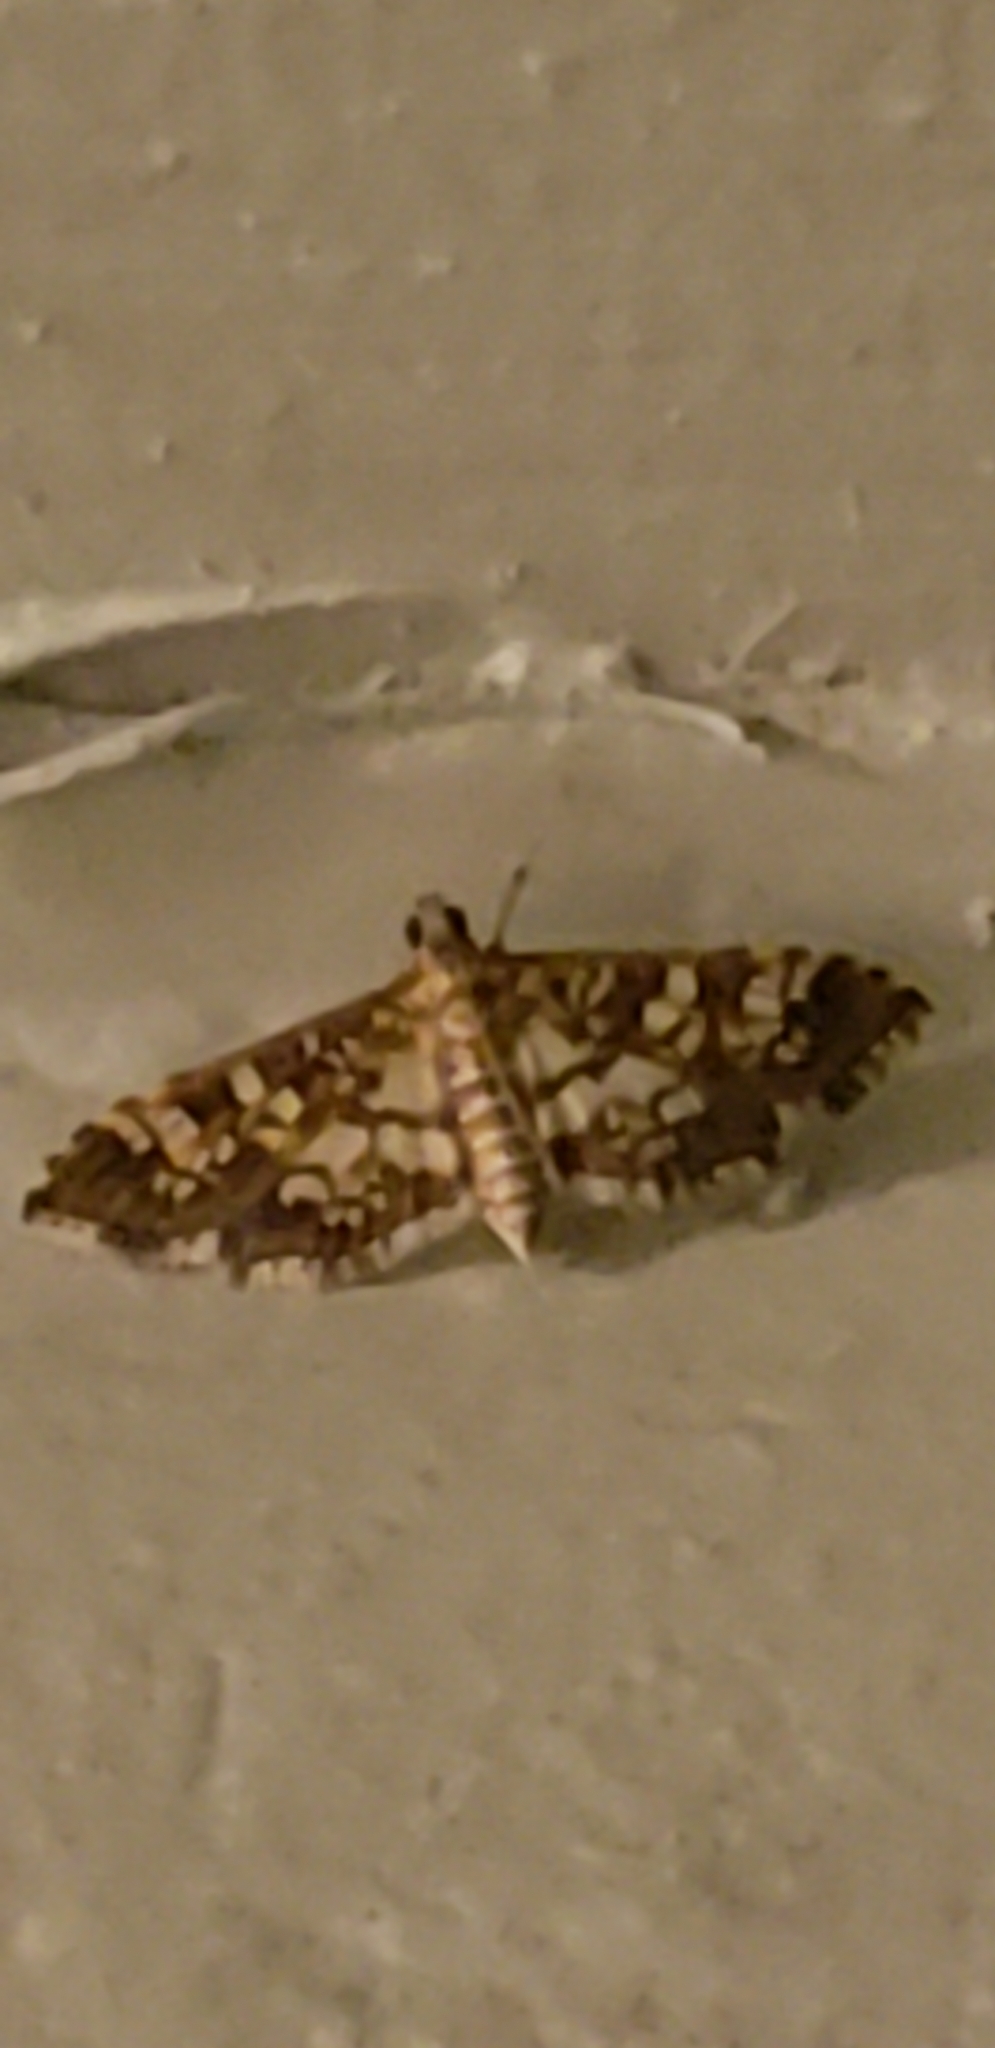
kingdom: Animalia
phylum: Arthropoda
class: Insecta
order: Lepidoptera
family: Crambidae
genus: Samea
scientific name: Samea ecclesialis
